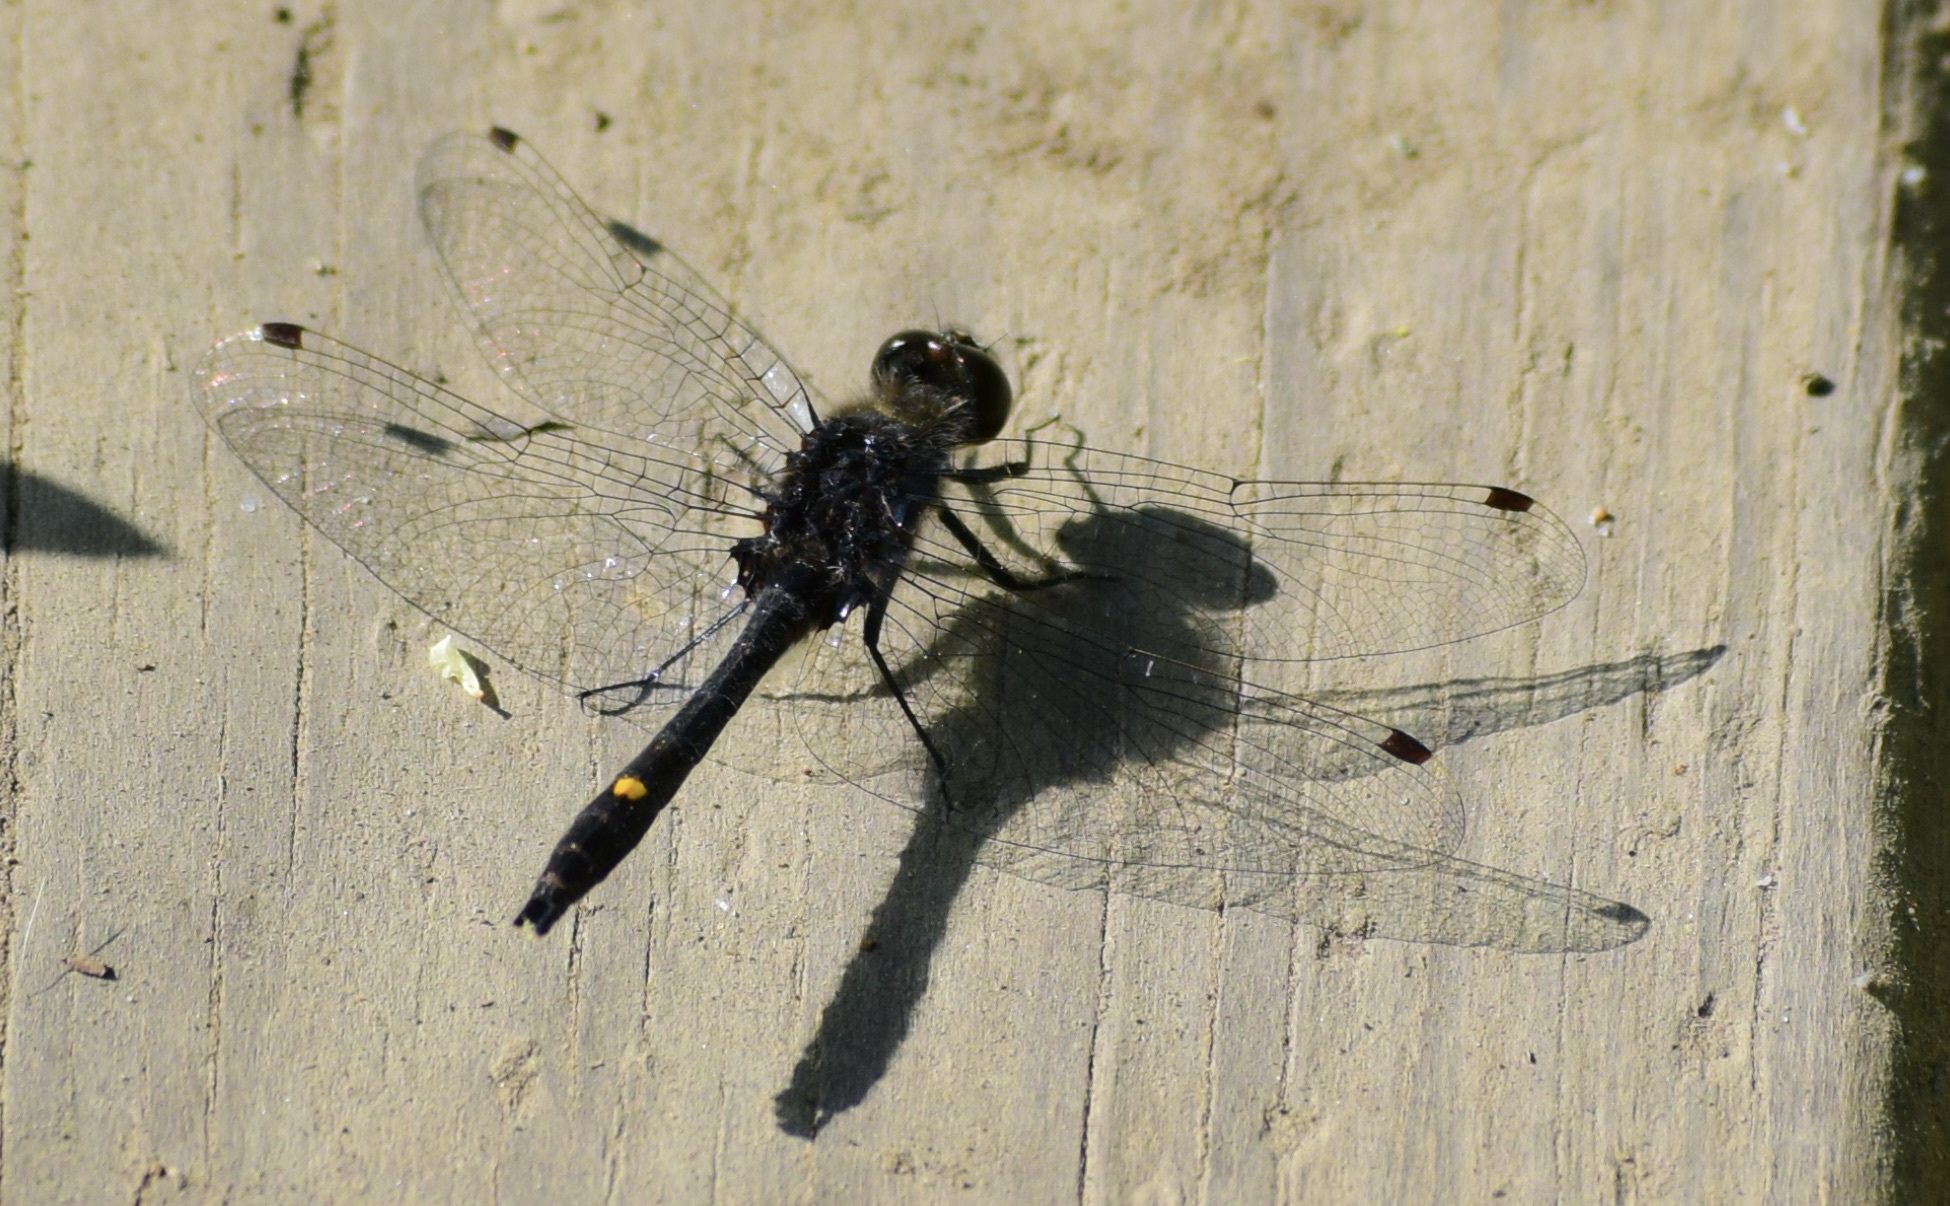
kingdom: Animalia
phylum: Arthropoda
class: Insecta
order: Odonata
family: Libellulidae
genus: Leucorrhinia
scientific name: Leucorrhinia intacta
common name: Dot-tailed whiteface
